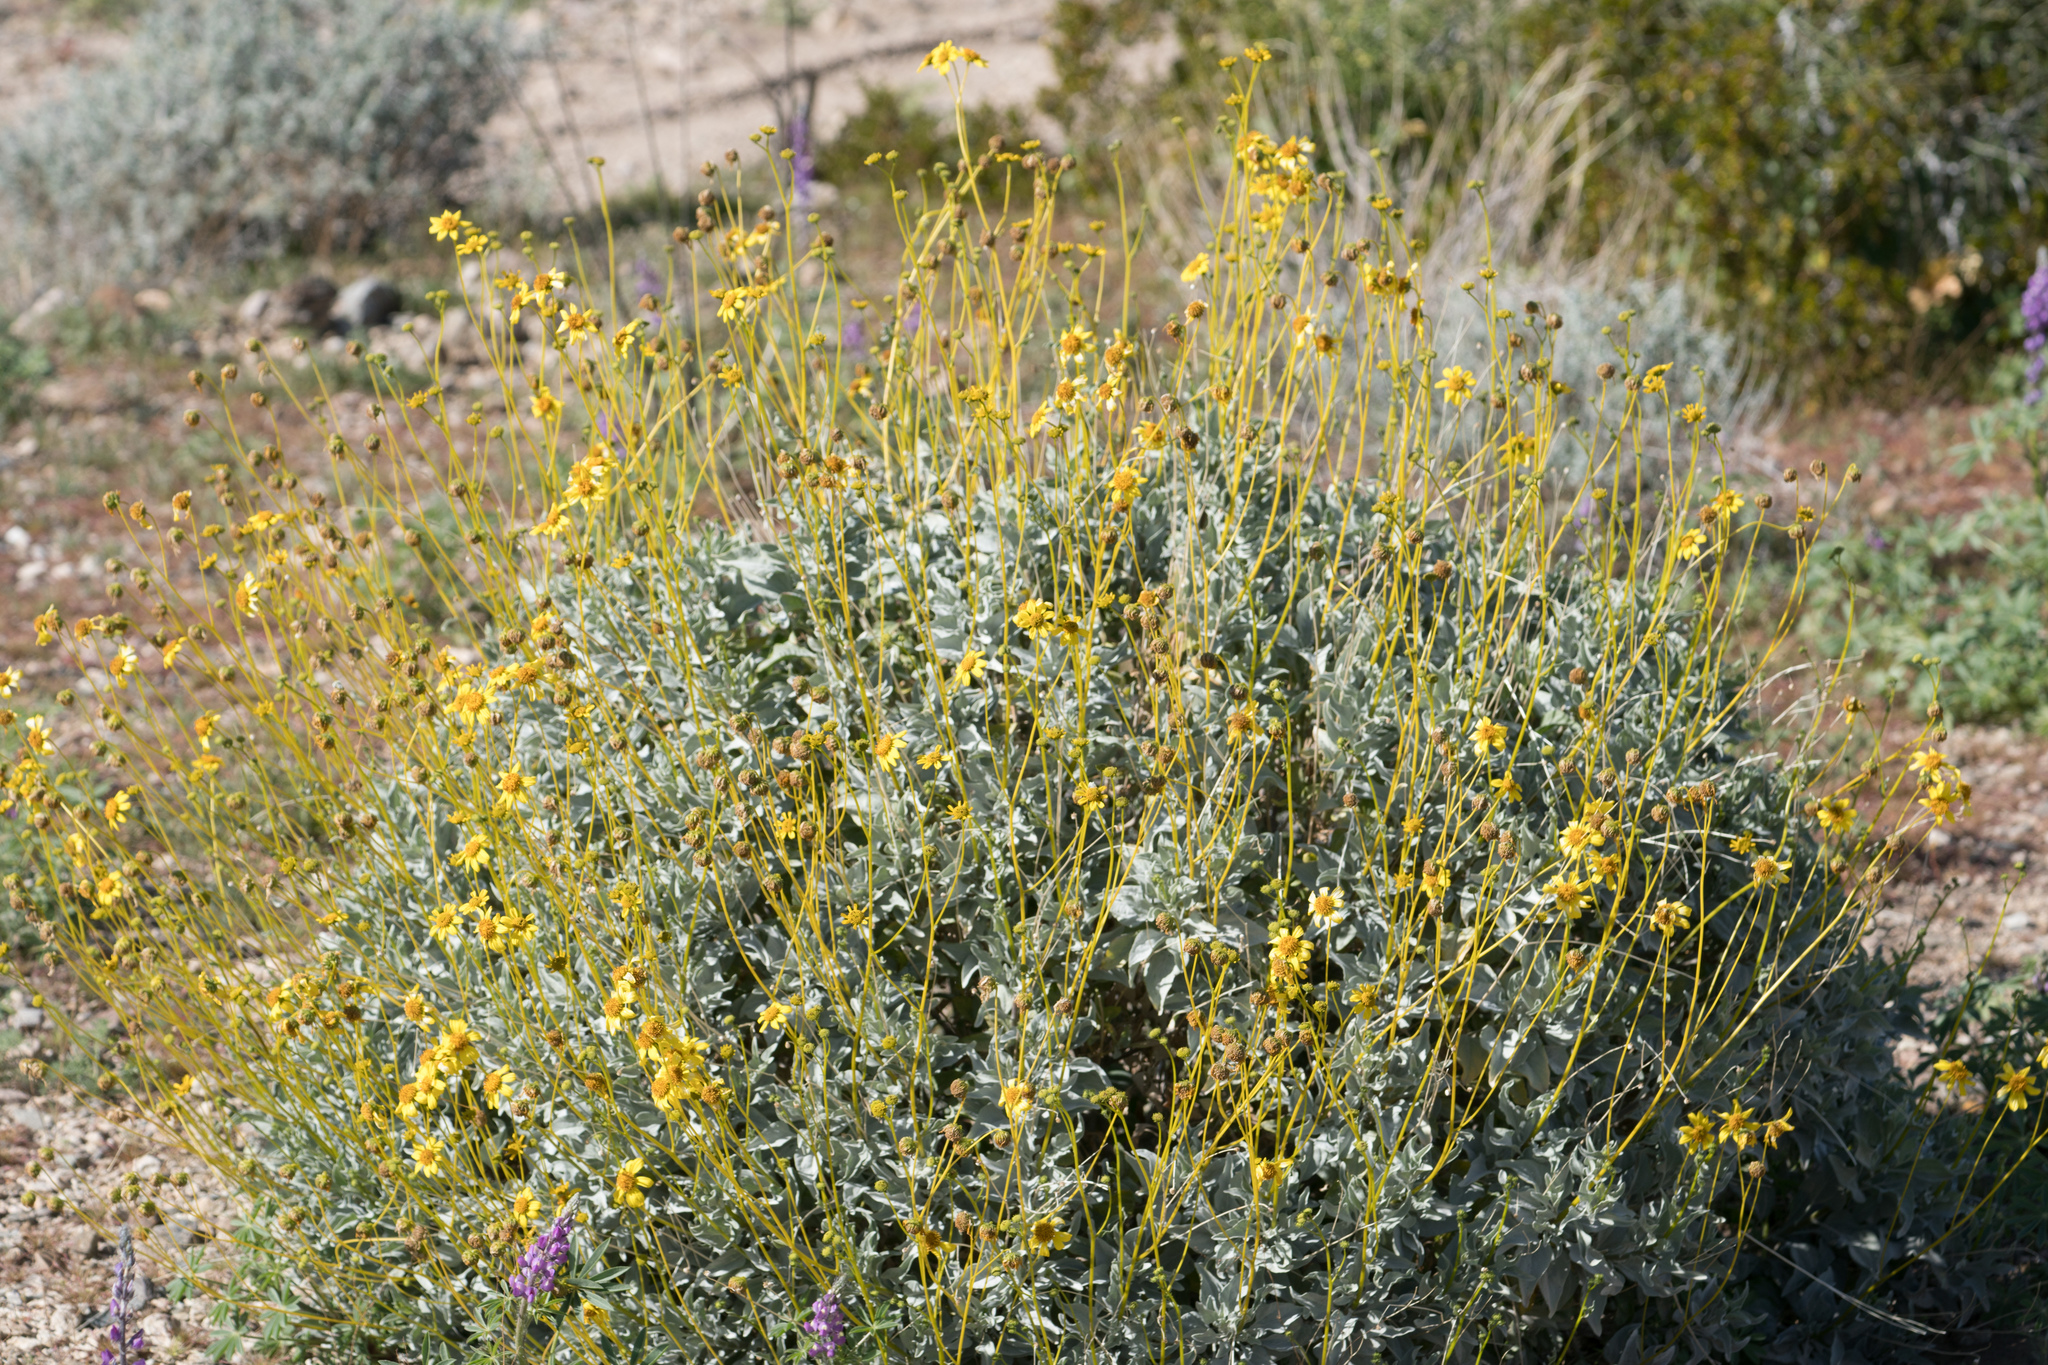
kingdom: Plantae
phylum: Tracheophyta
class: Magnoliopsida
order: Asterales
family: Asteraceae
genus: Encelia
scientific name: Encelia farinosa
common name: Brittlebush
